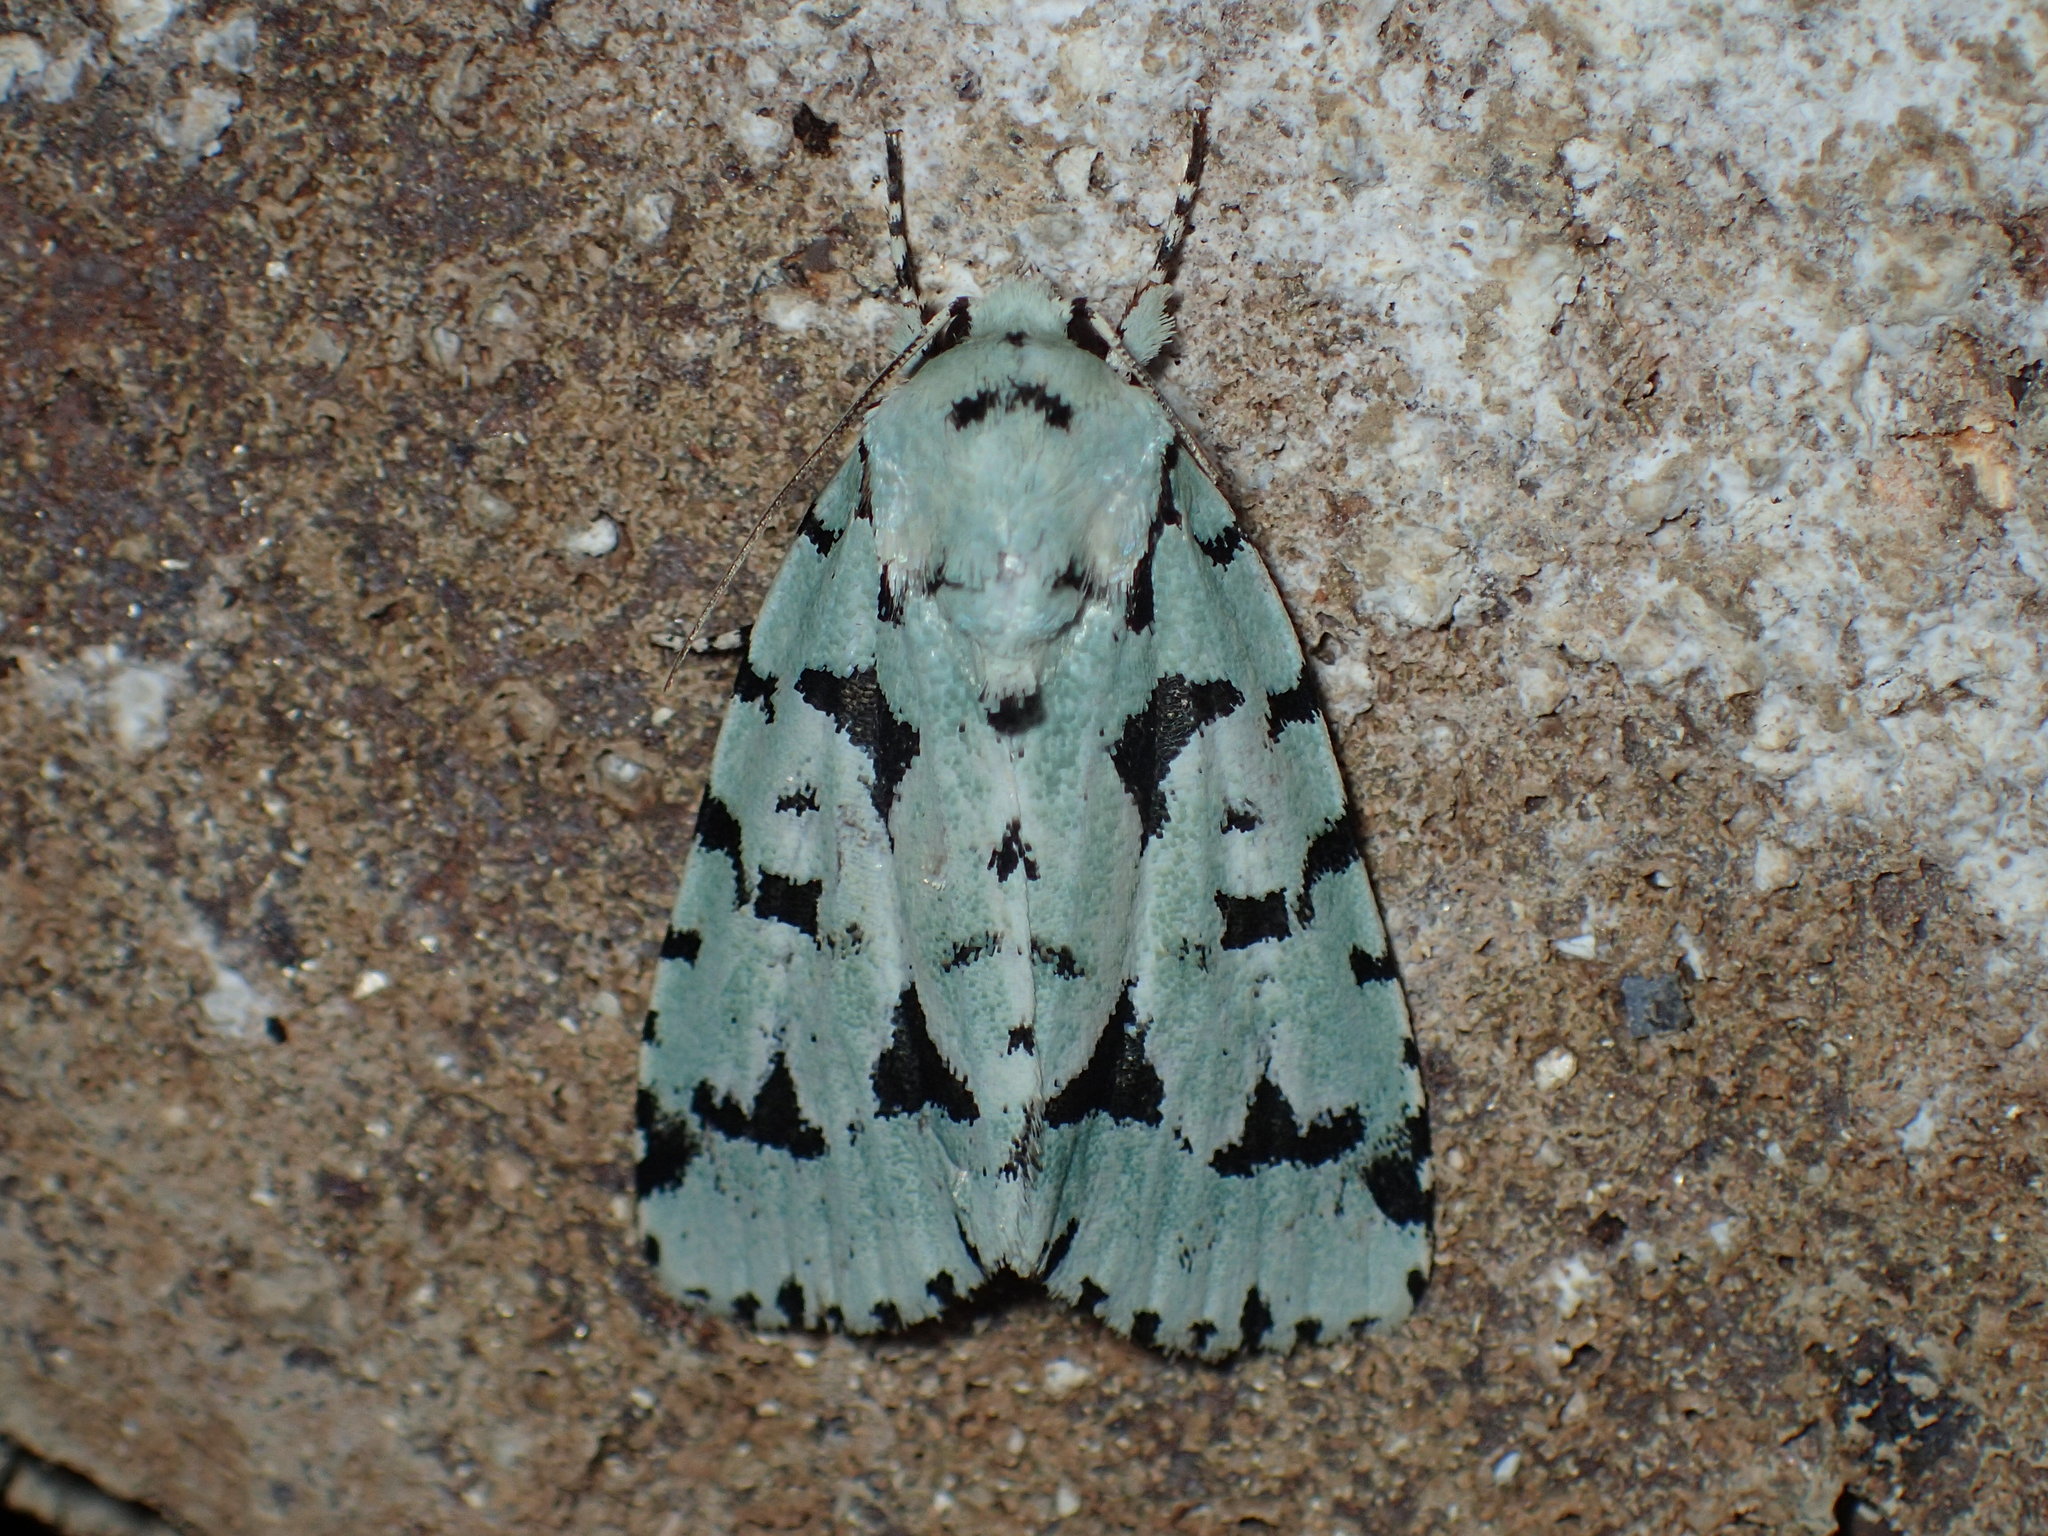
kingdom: Animalia
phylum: Arthropoda
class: Insecta
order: Lepidoptera
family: Noctuidae
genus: Acronicta
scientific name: Acronicta fallax
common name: Green marvel
